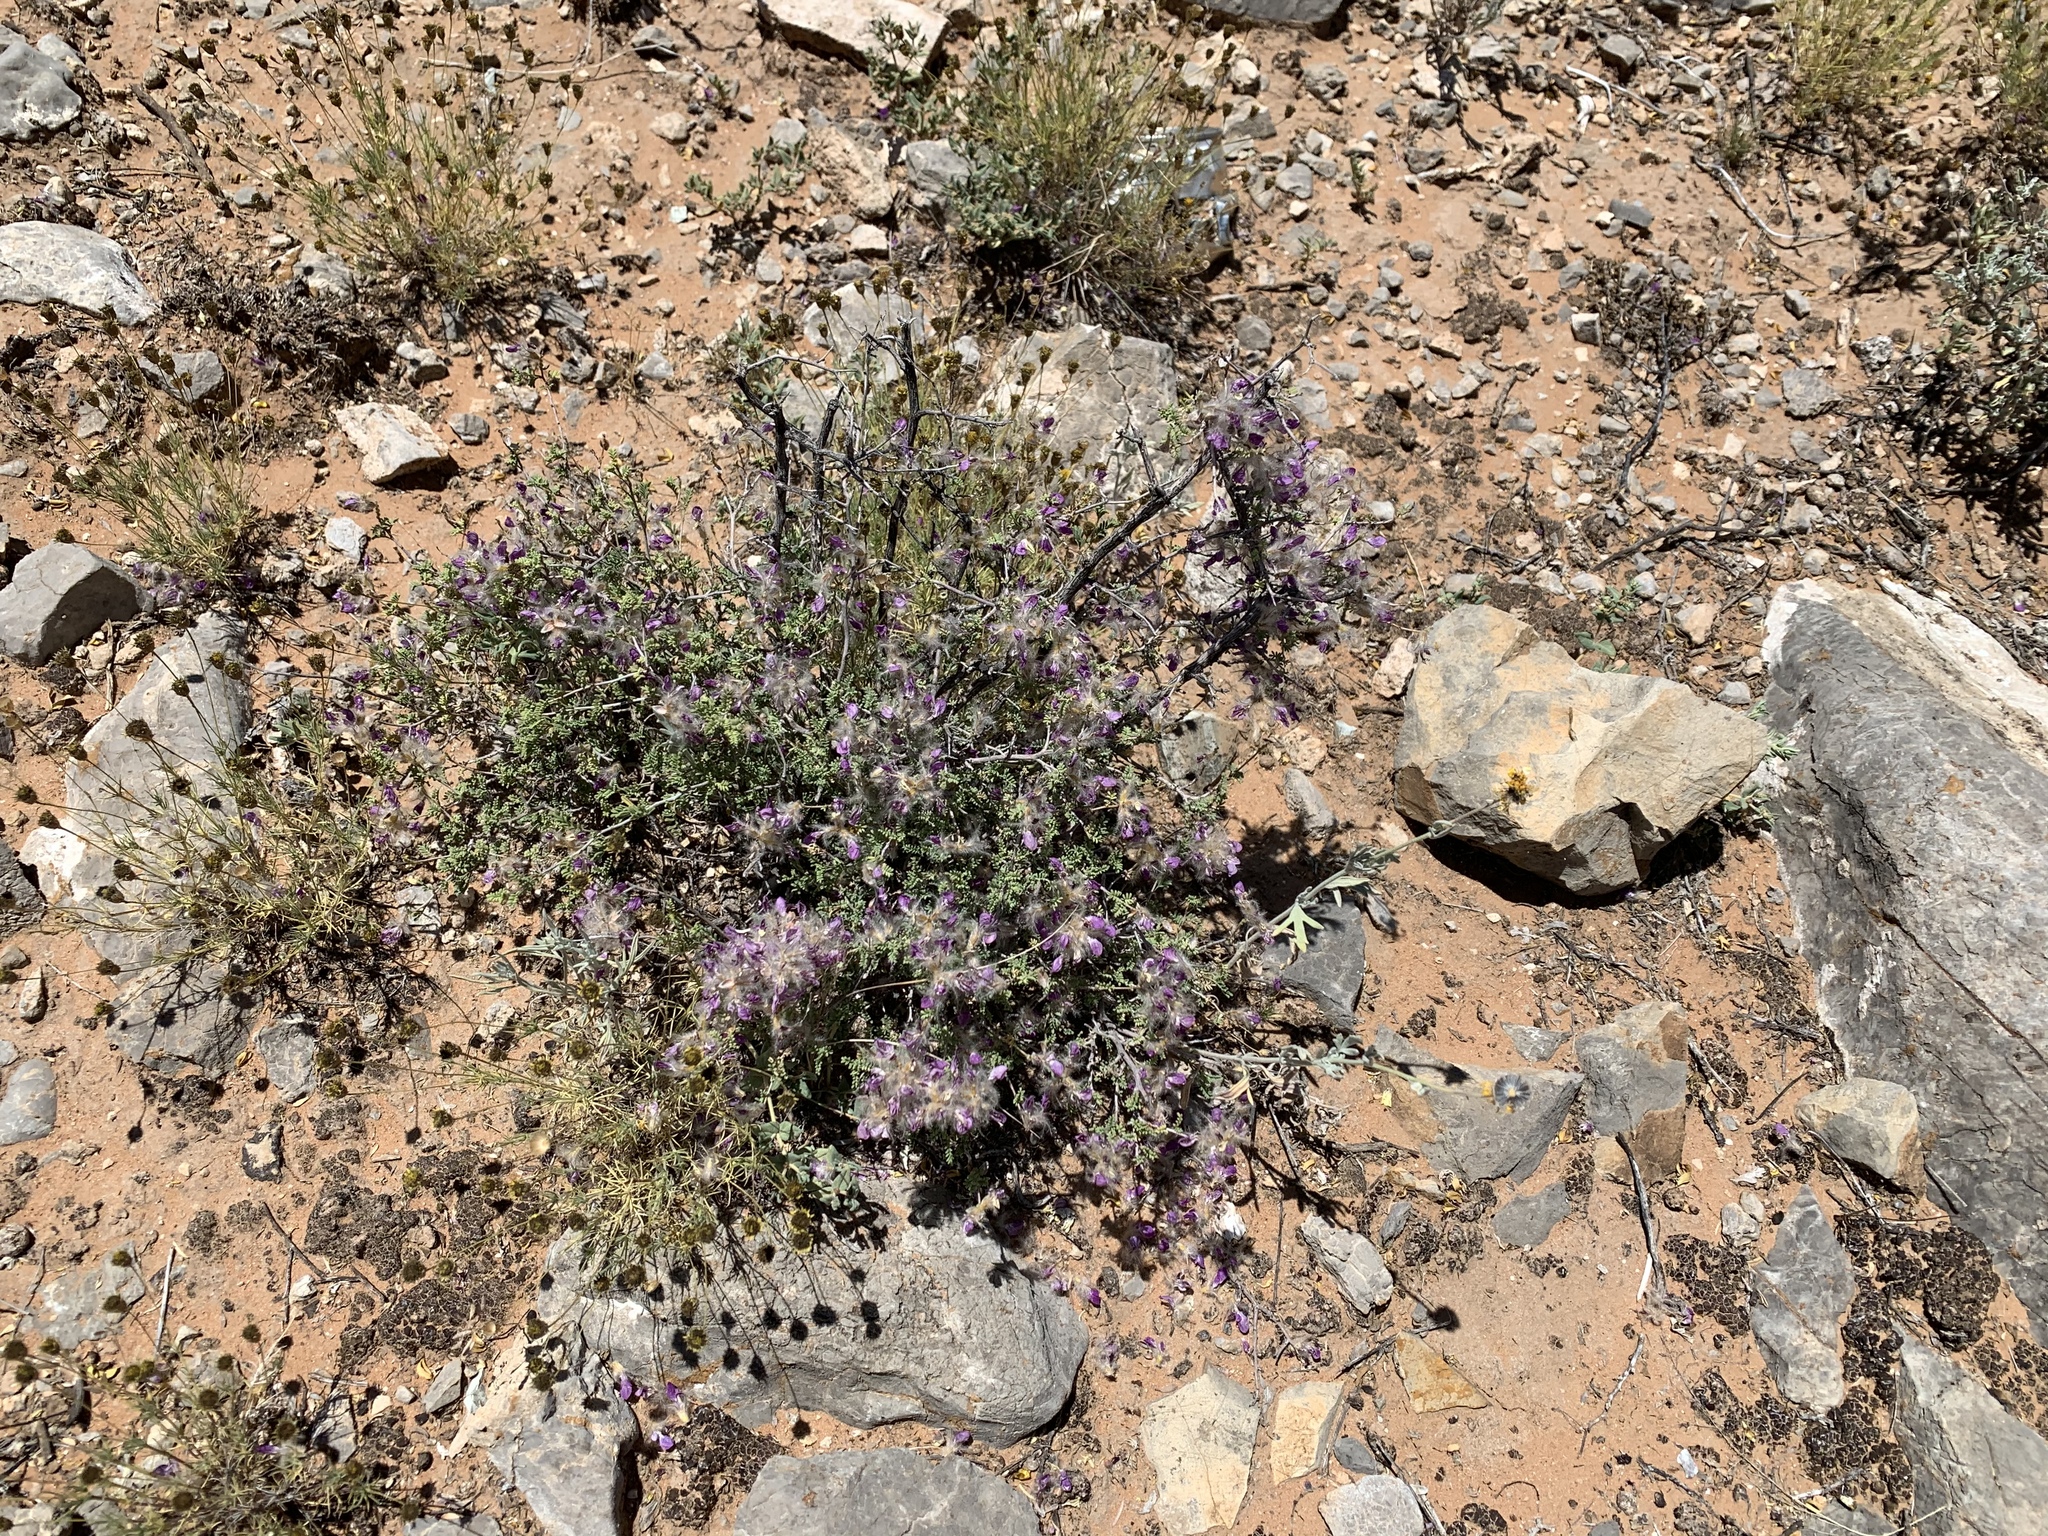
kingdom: Plantae
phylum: Tracheophyta
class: Magnoliopsida
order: Fabales
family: Fabaceae
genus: Dalea
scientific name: Dalea formosa
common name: Feather-plume dalea
